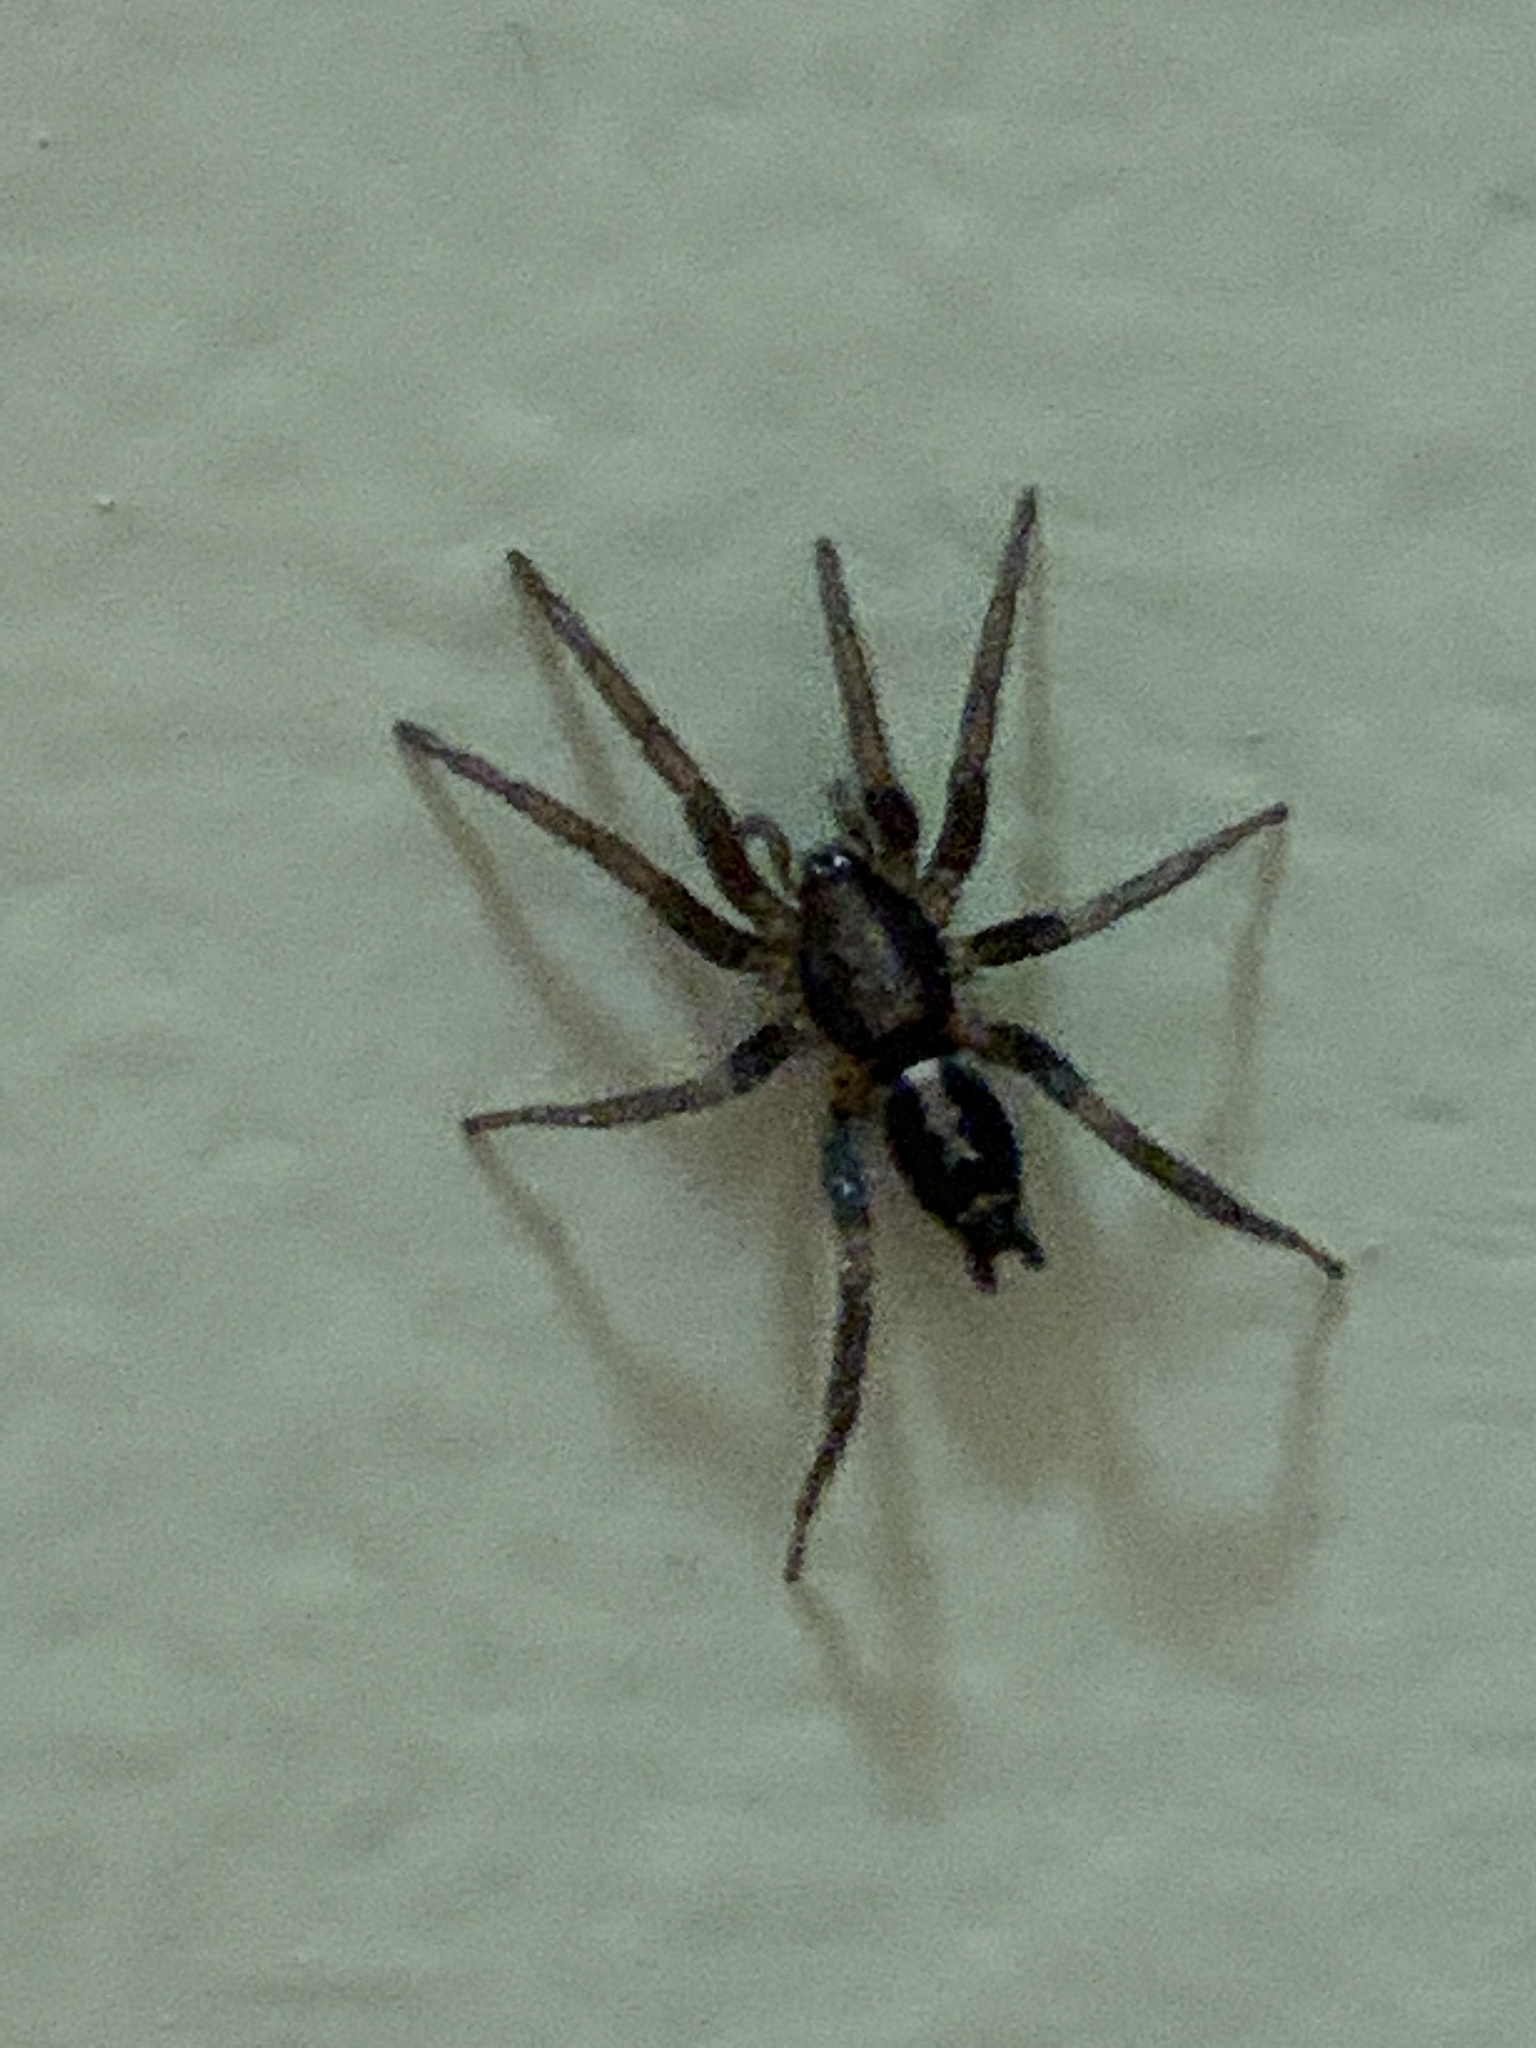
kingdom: Animalia
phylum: Arthropoda
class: Arachnida
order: Araneae
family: Gnaphosidae
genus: Herpyllus
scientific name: Herpyllus ecclesiasticus
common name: Eastern parson spider
